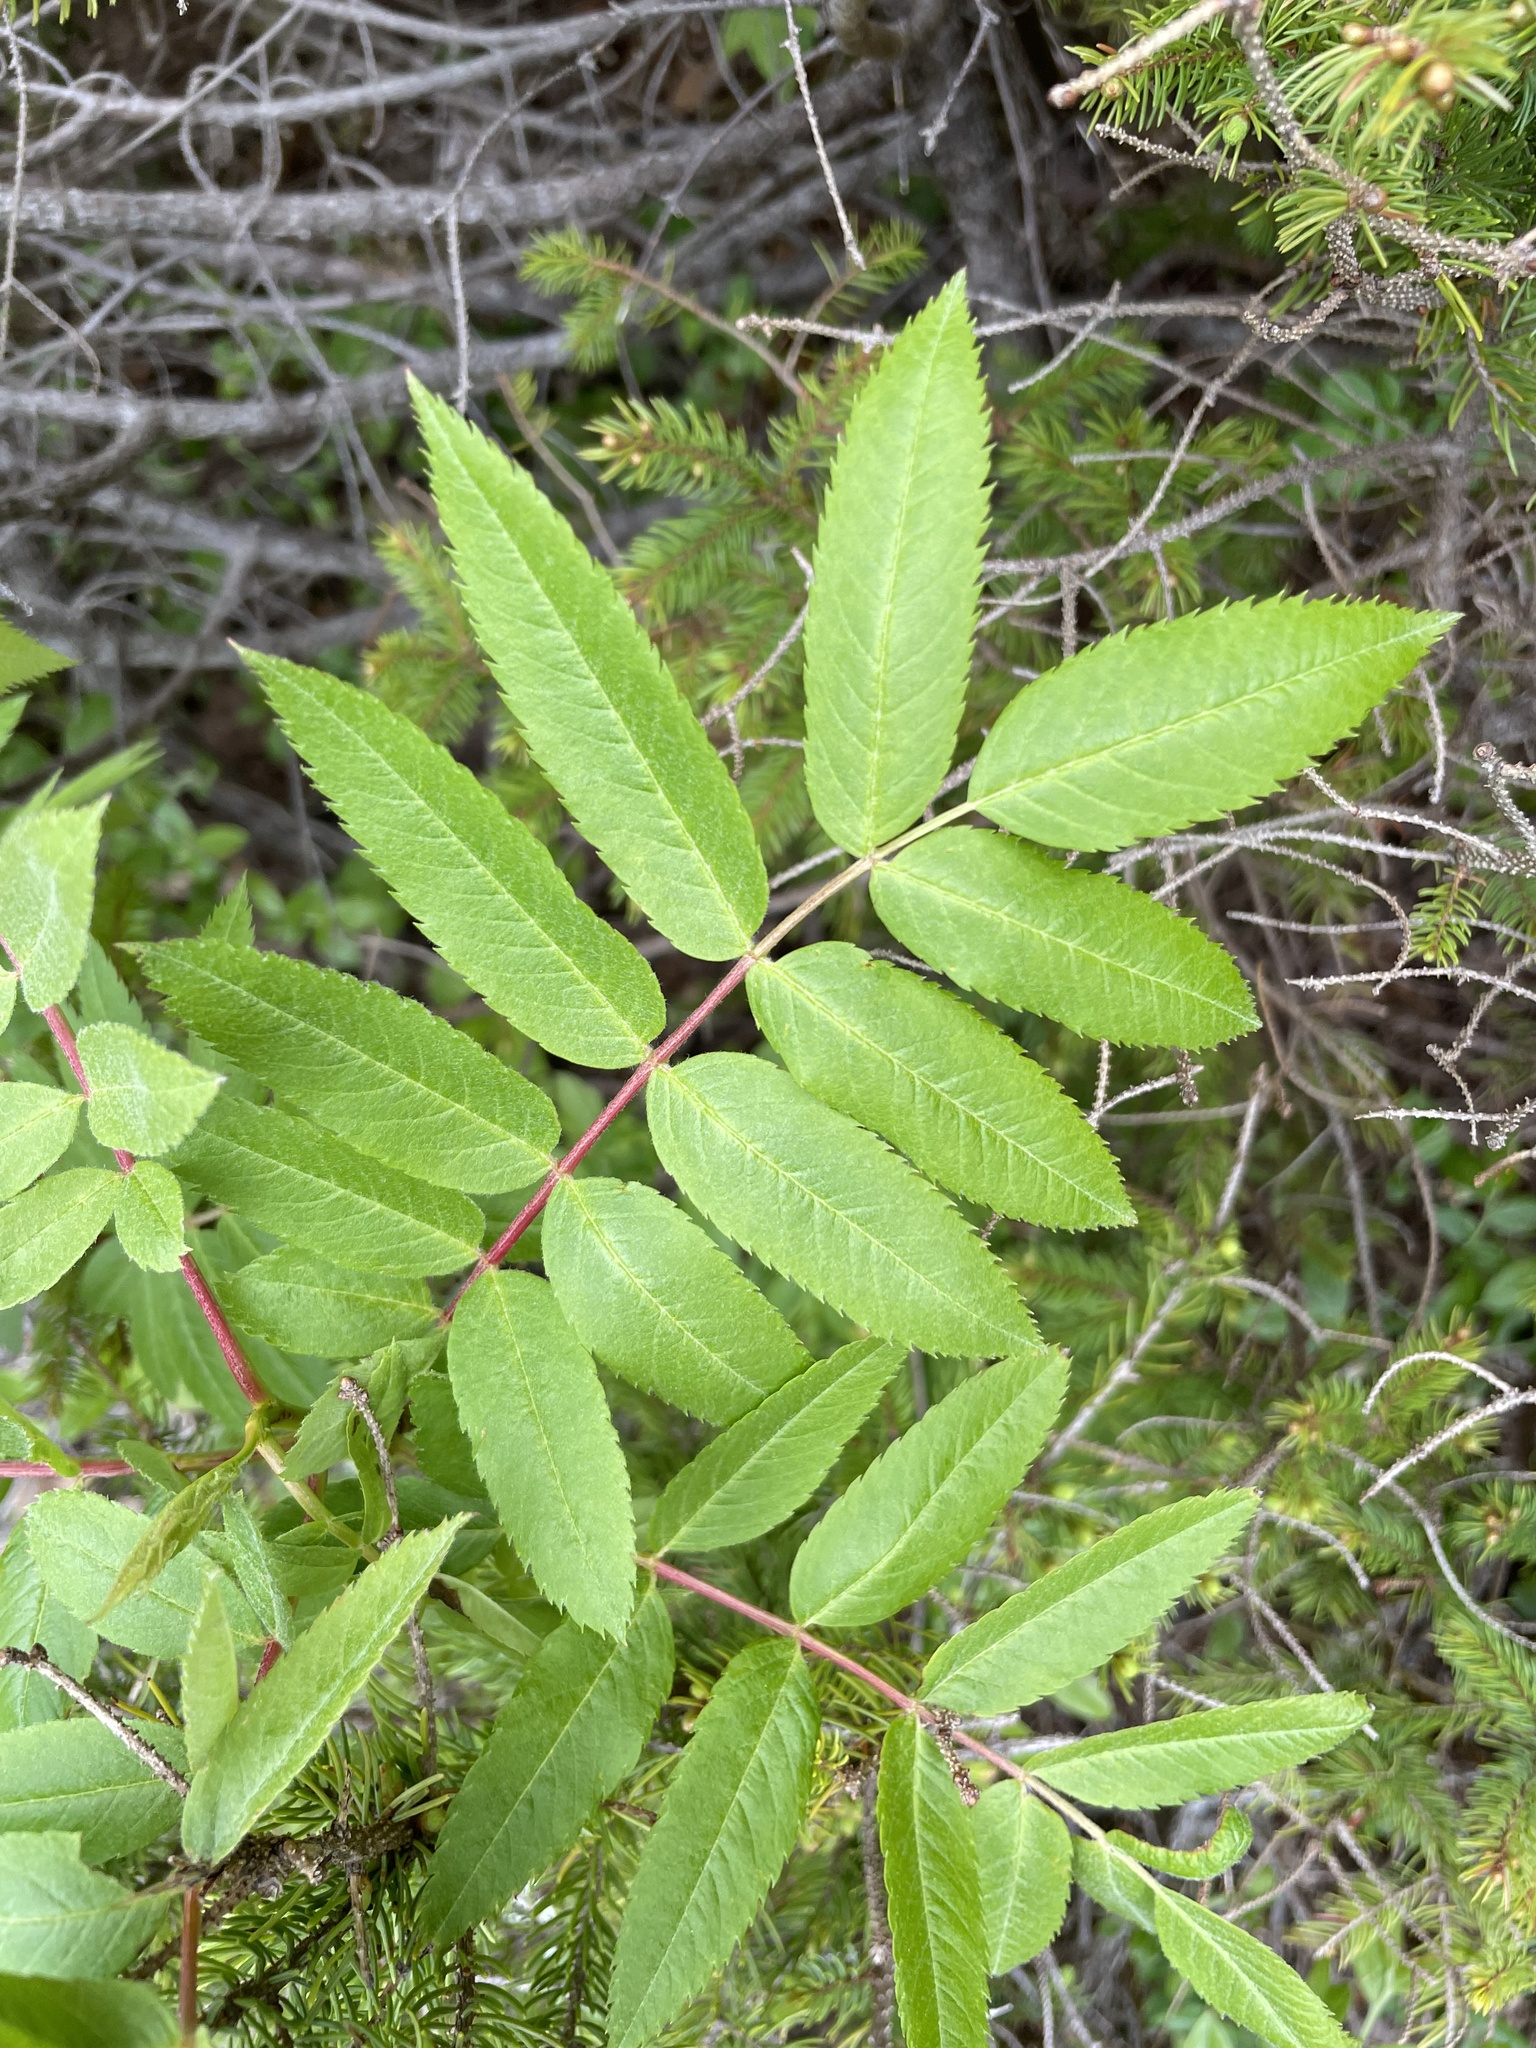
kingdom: Plantae
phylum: Tracheophyta
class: Magnoliopsida
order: Rosales
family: Rosaceae
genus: Sorbus
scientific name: Sorbus americana
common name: American mountain-ash
